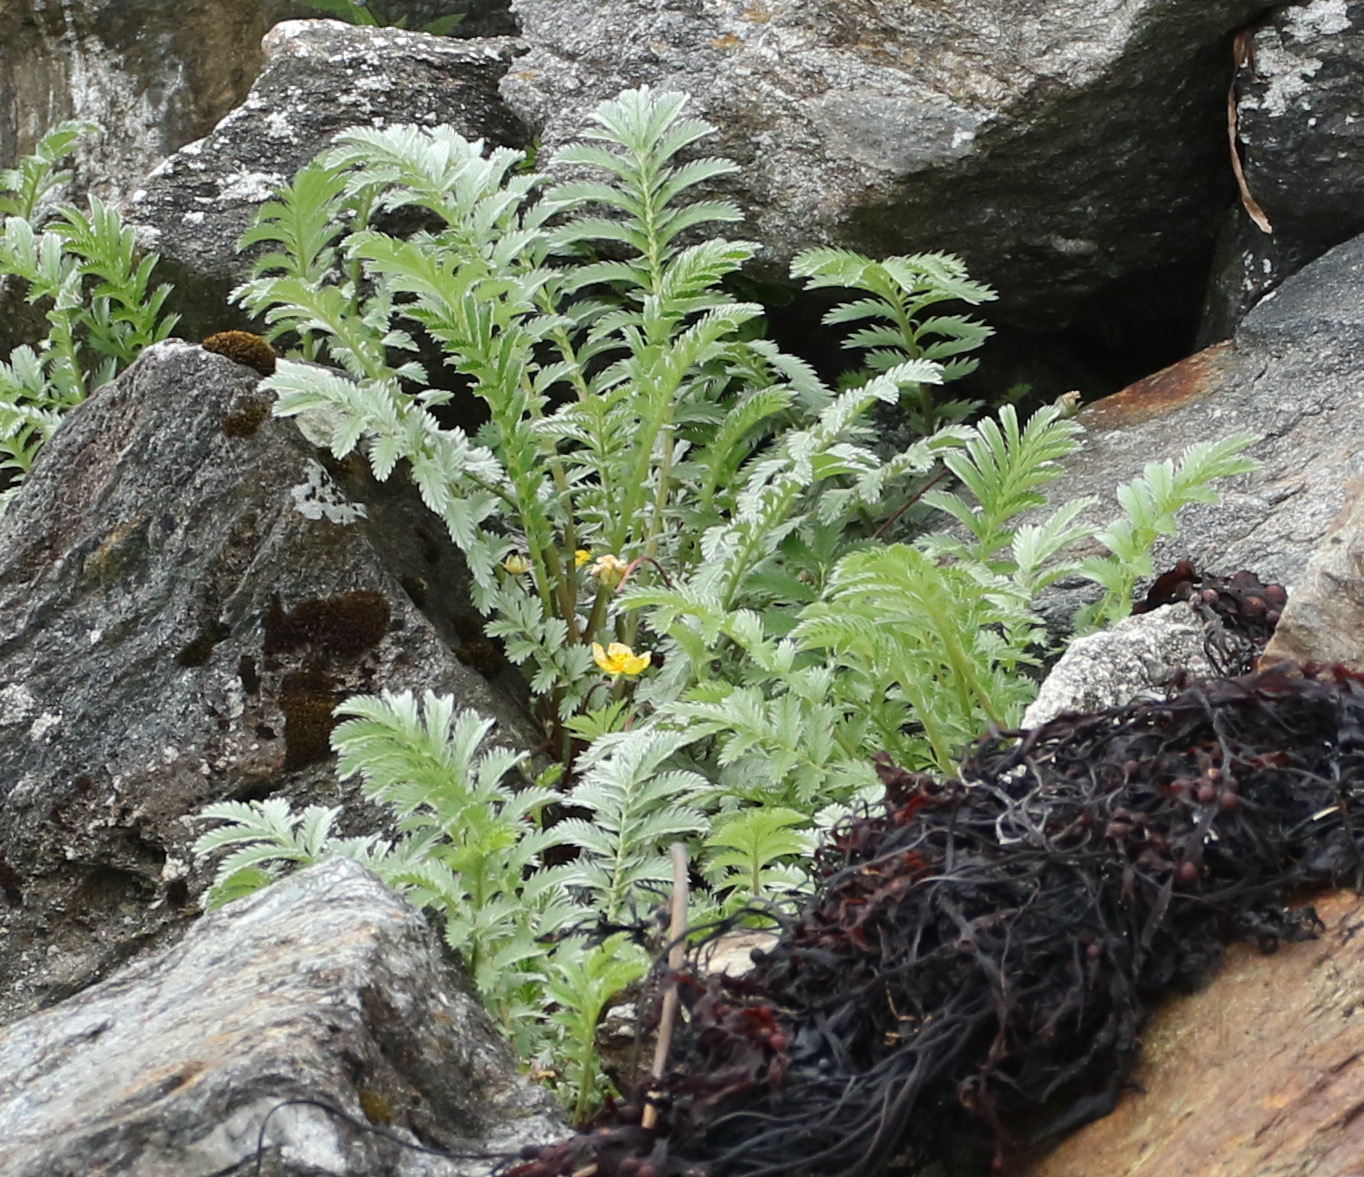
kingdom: Plantae
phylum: Tracheophyta
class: Magnoliopsida
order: Rosales
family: Rosaceae
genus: Argentina
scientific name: Argentina anserina
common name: Common silverweed
